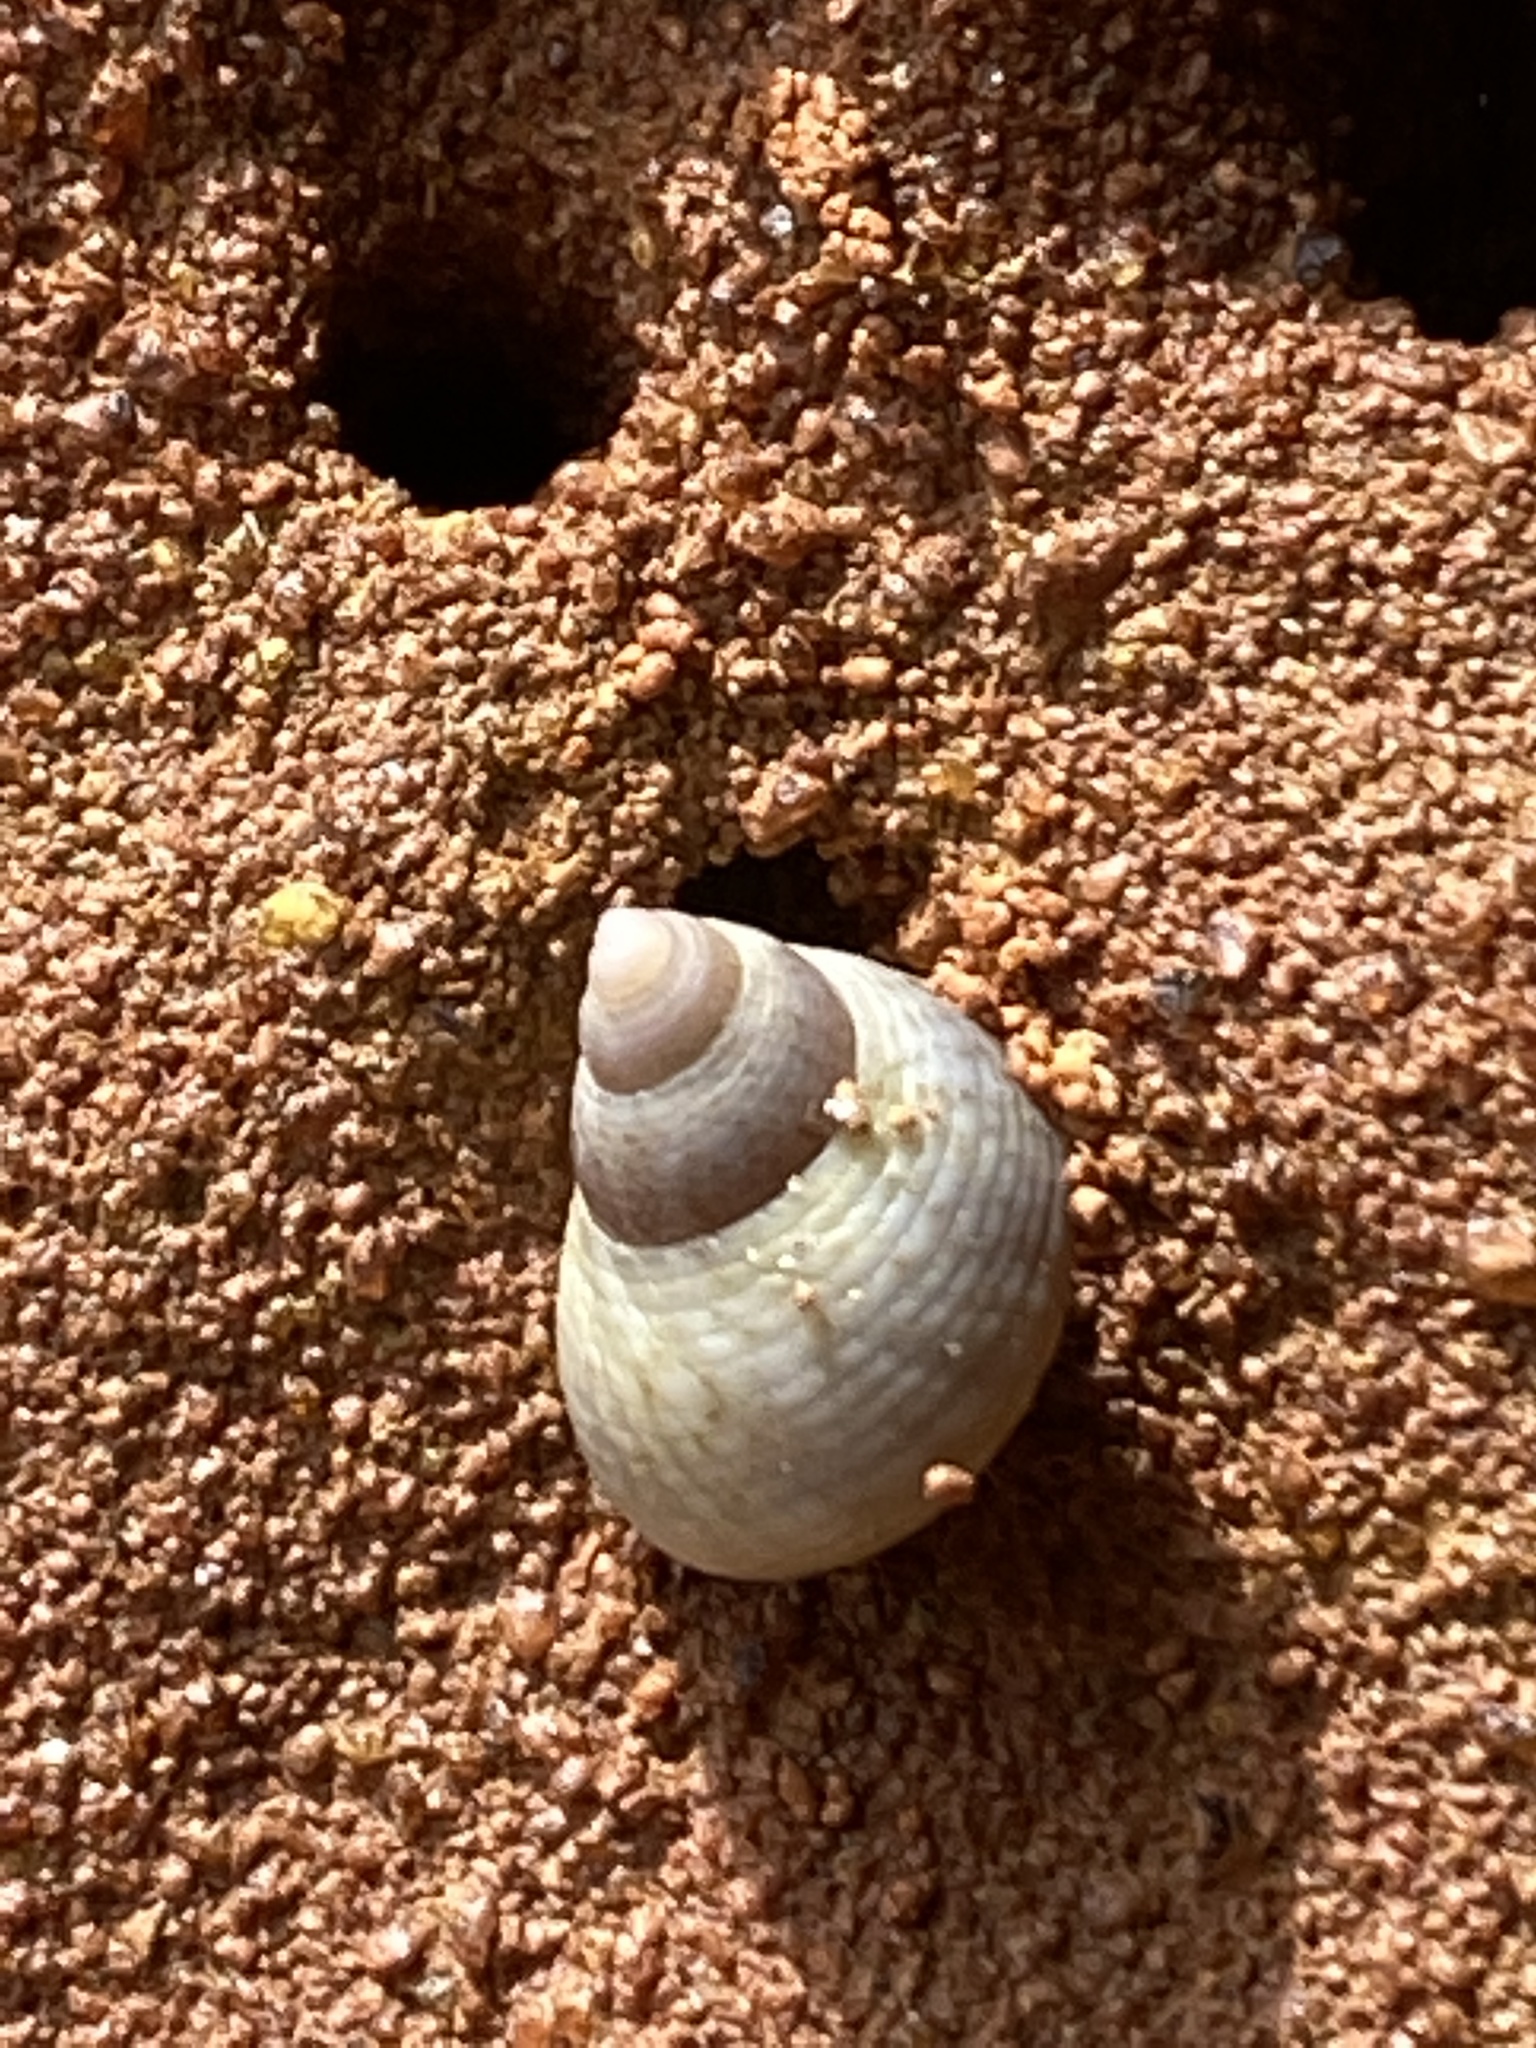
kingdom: Animalia
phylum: Mollusca
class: Gastropoda
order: Littorinimorpha
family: Littorinidae
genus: Littoraria
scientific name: Littoraria flava
